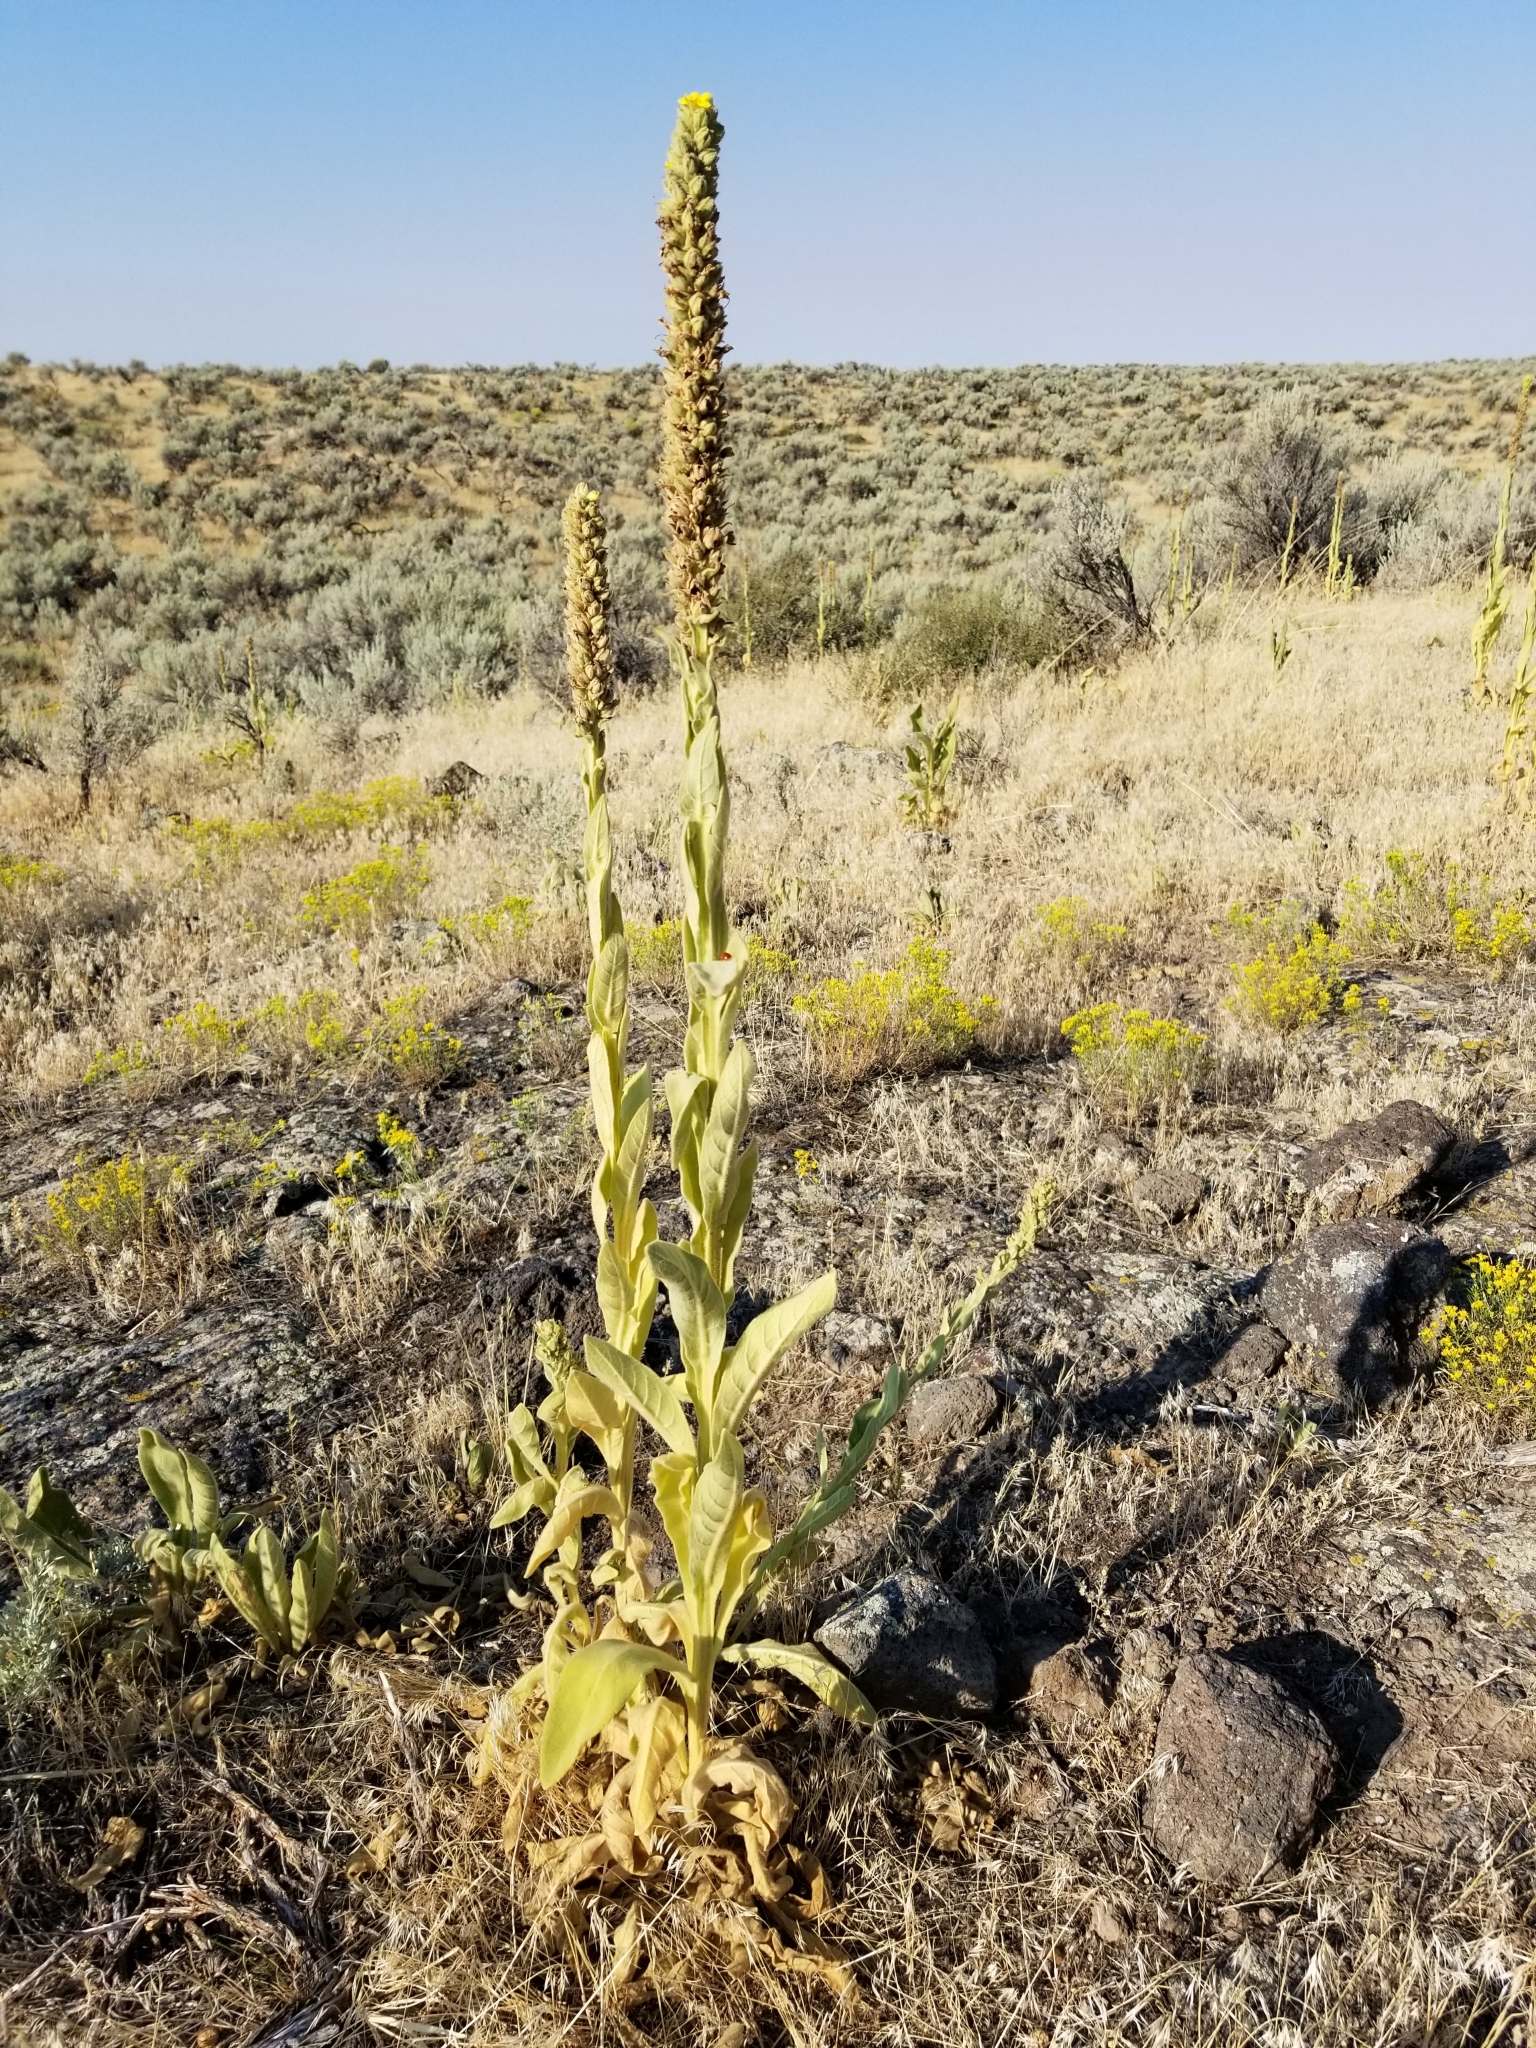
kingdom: Plantae
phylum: Tracheophyta
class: Magnoliopsida
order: Lamiales
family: Scrophulariaceae
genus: Verbascum
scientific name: Verbascum thapsus
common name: Common mullein
